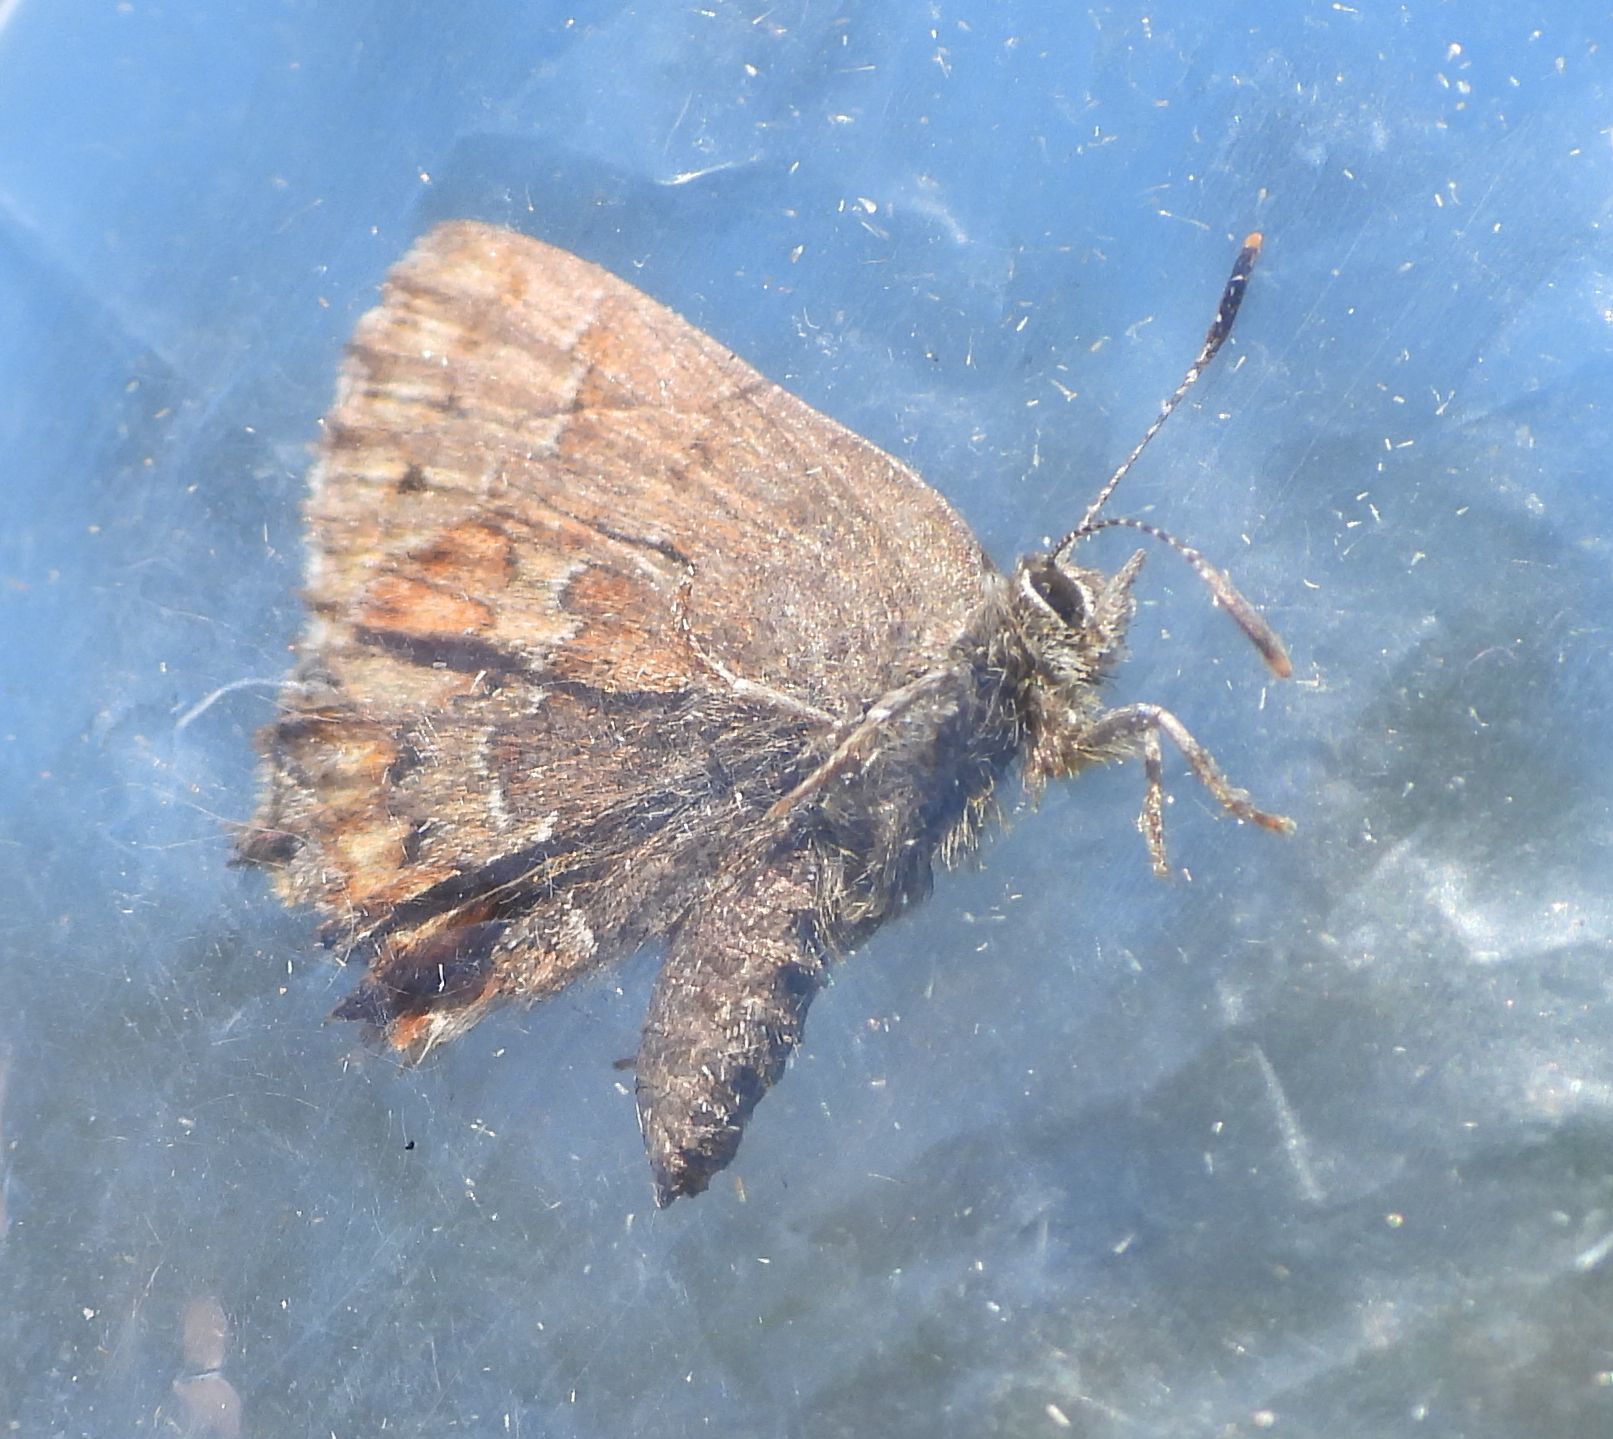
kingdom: Animalia
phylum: Arthropoda
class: Insecta
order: Lepidoptera
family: Lycaenidae
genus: Incisalia
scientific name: Incisalia niphon
